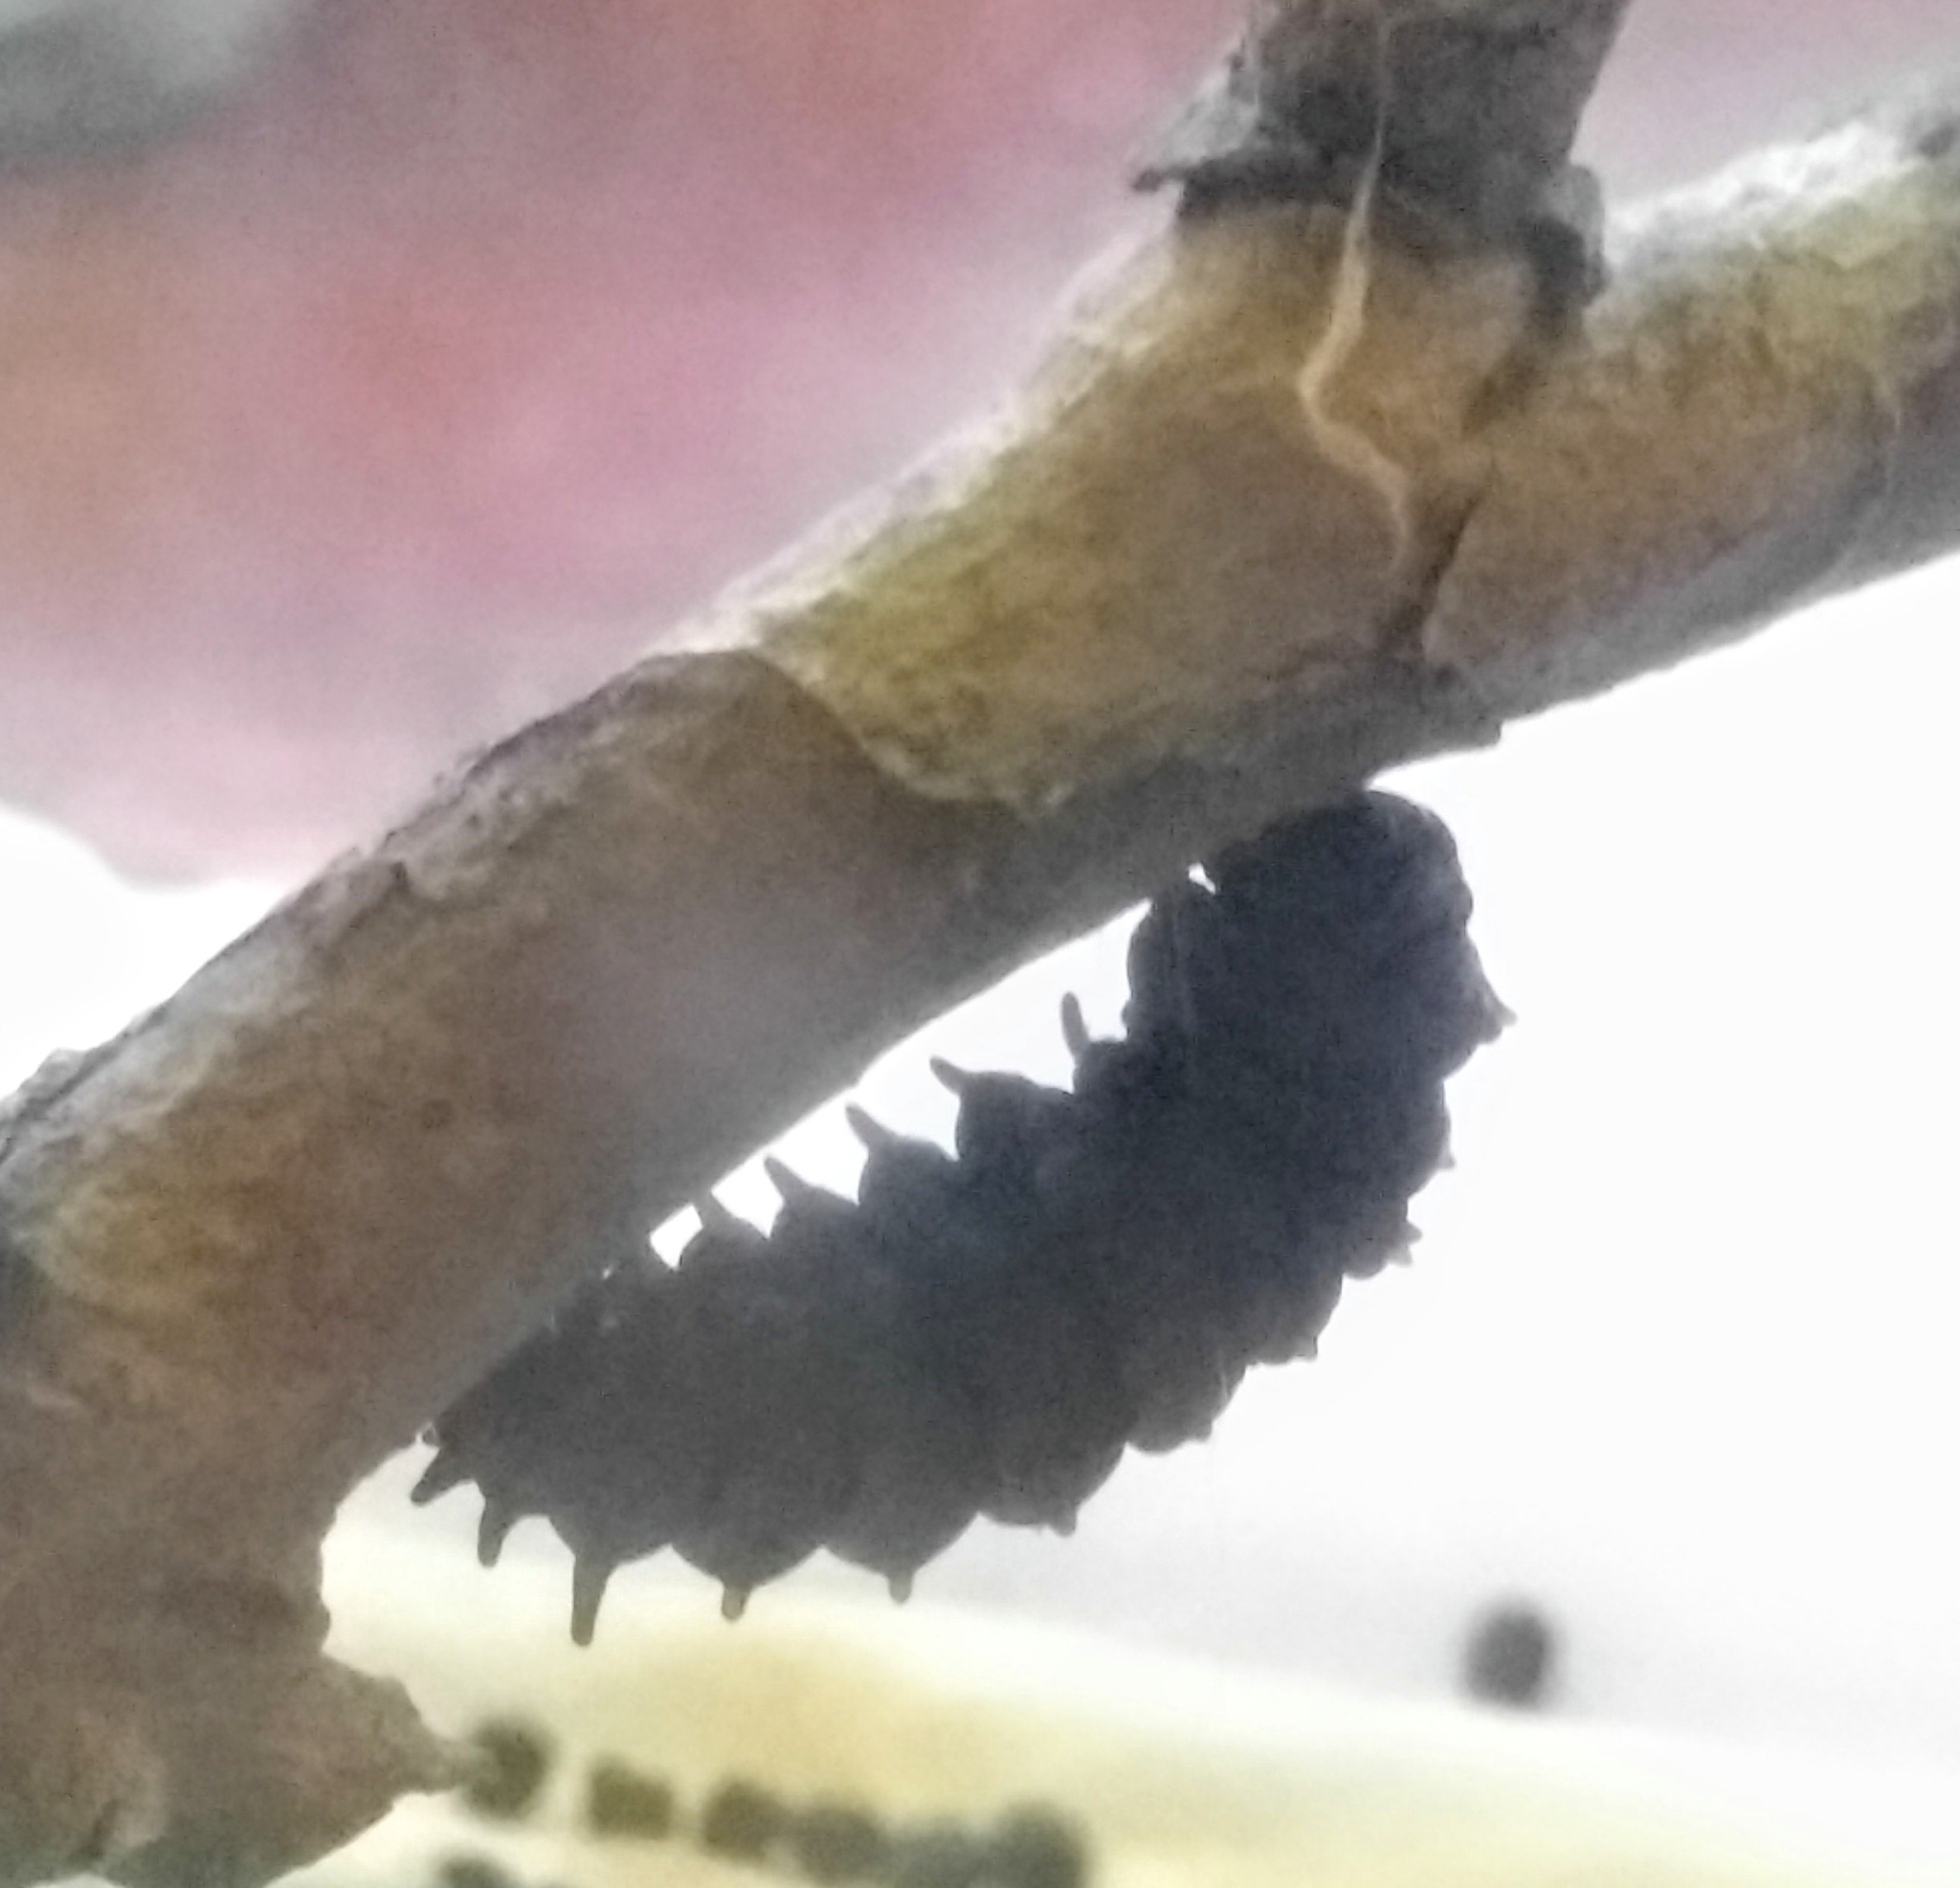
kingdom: Animalia
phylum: Arthropoda
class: Insecta
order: Lepidoptera
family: Papilionidae
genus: Battus
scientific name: Battus philenor
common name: Pipevine swallowtail
